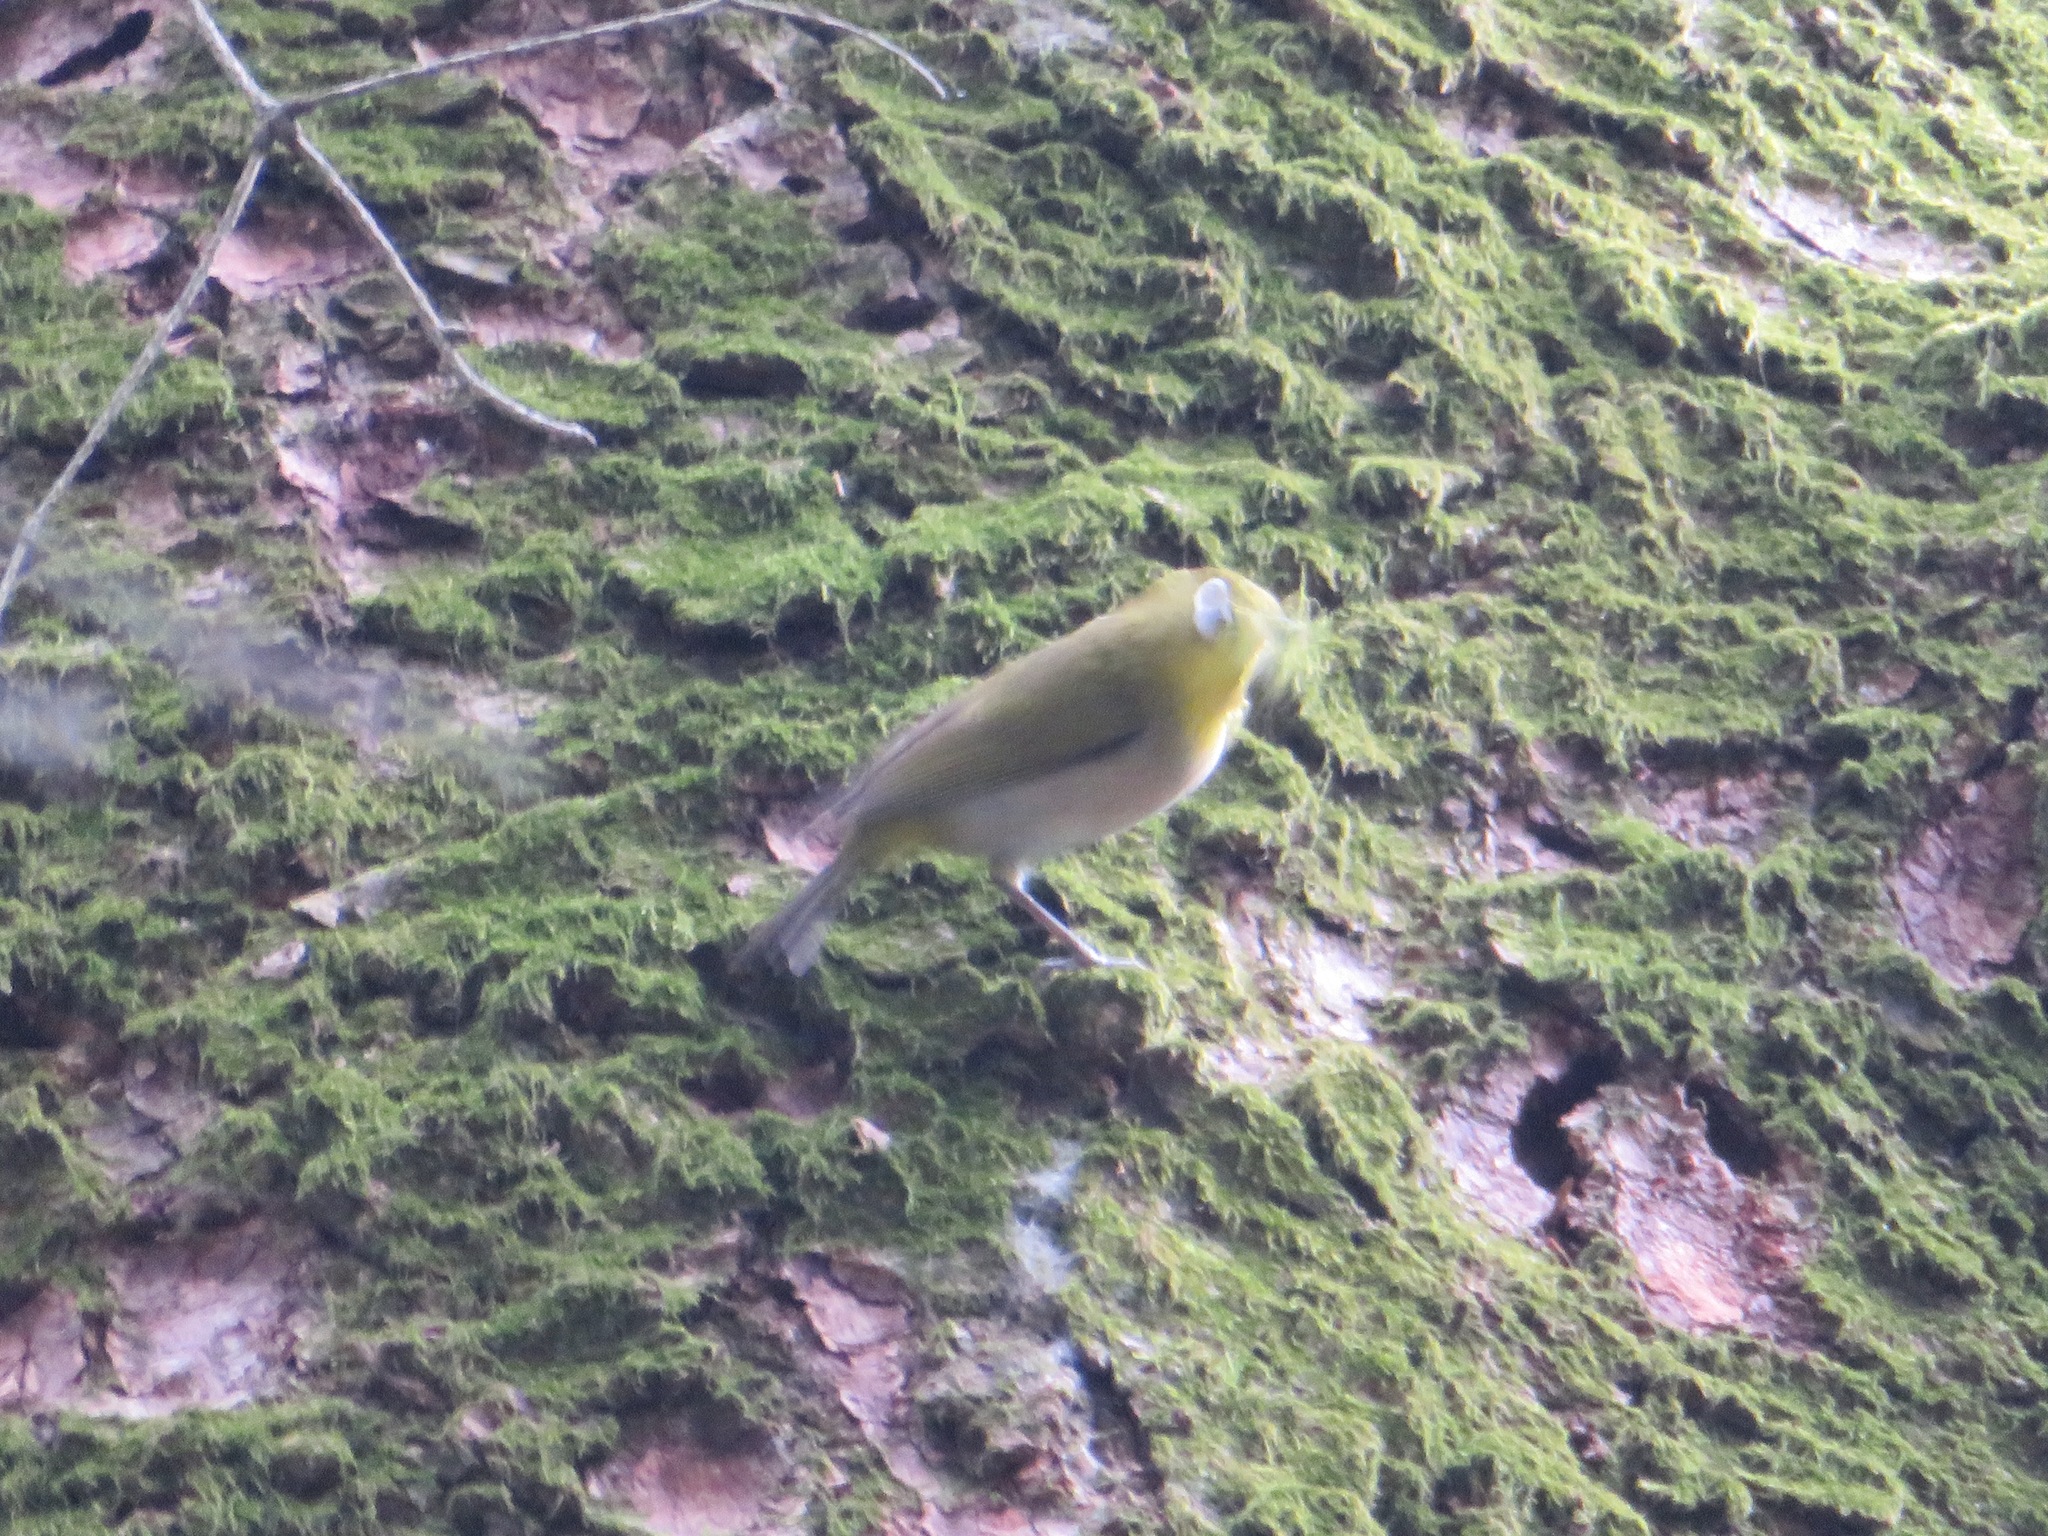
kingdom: Animalia
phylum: Chordata
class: Aves
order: Passeriformes
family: Zosteropidae
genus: Zosterops
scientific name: Zosterops japonicus
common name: Japanese white-eye
